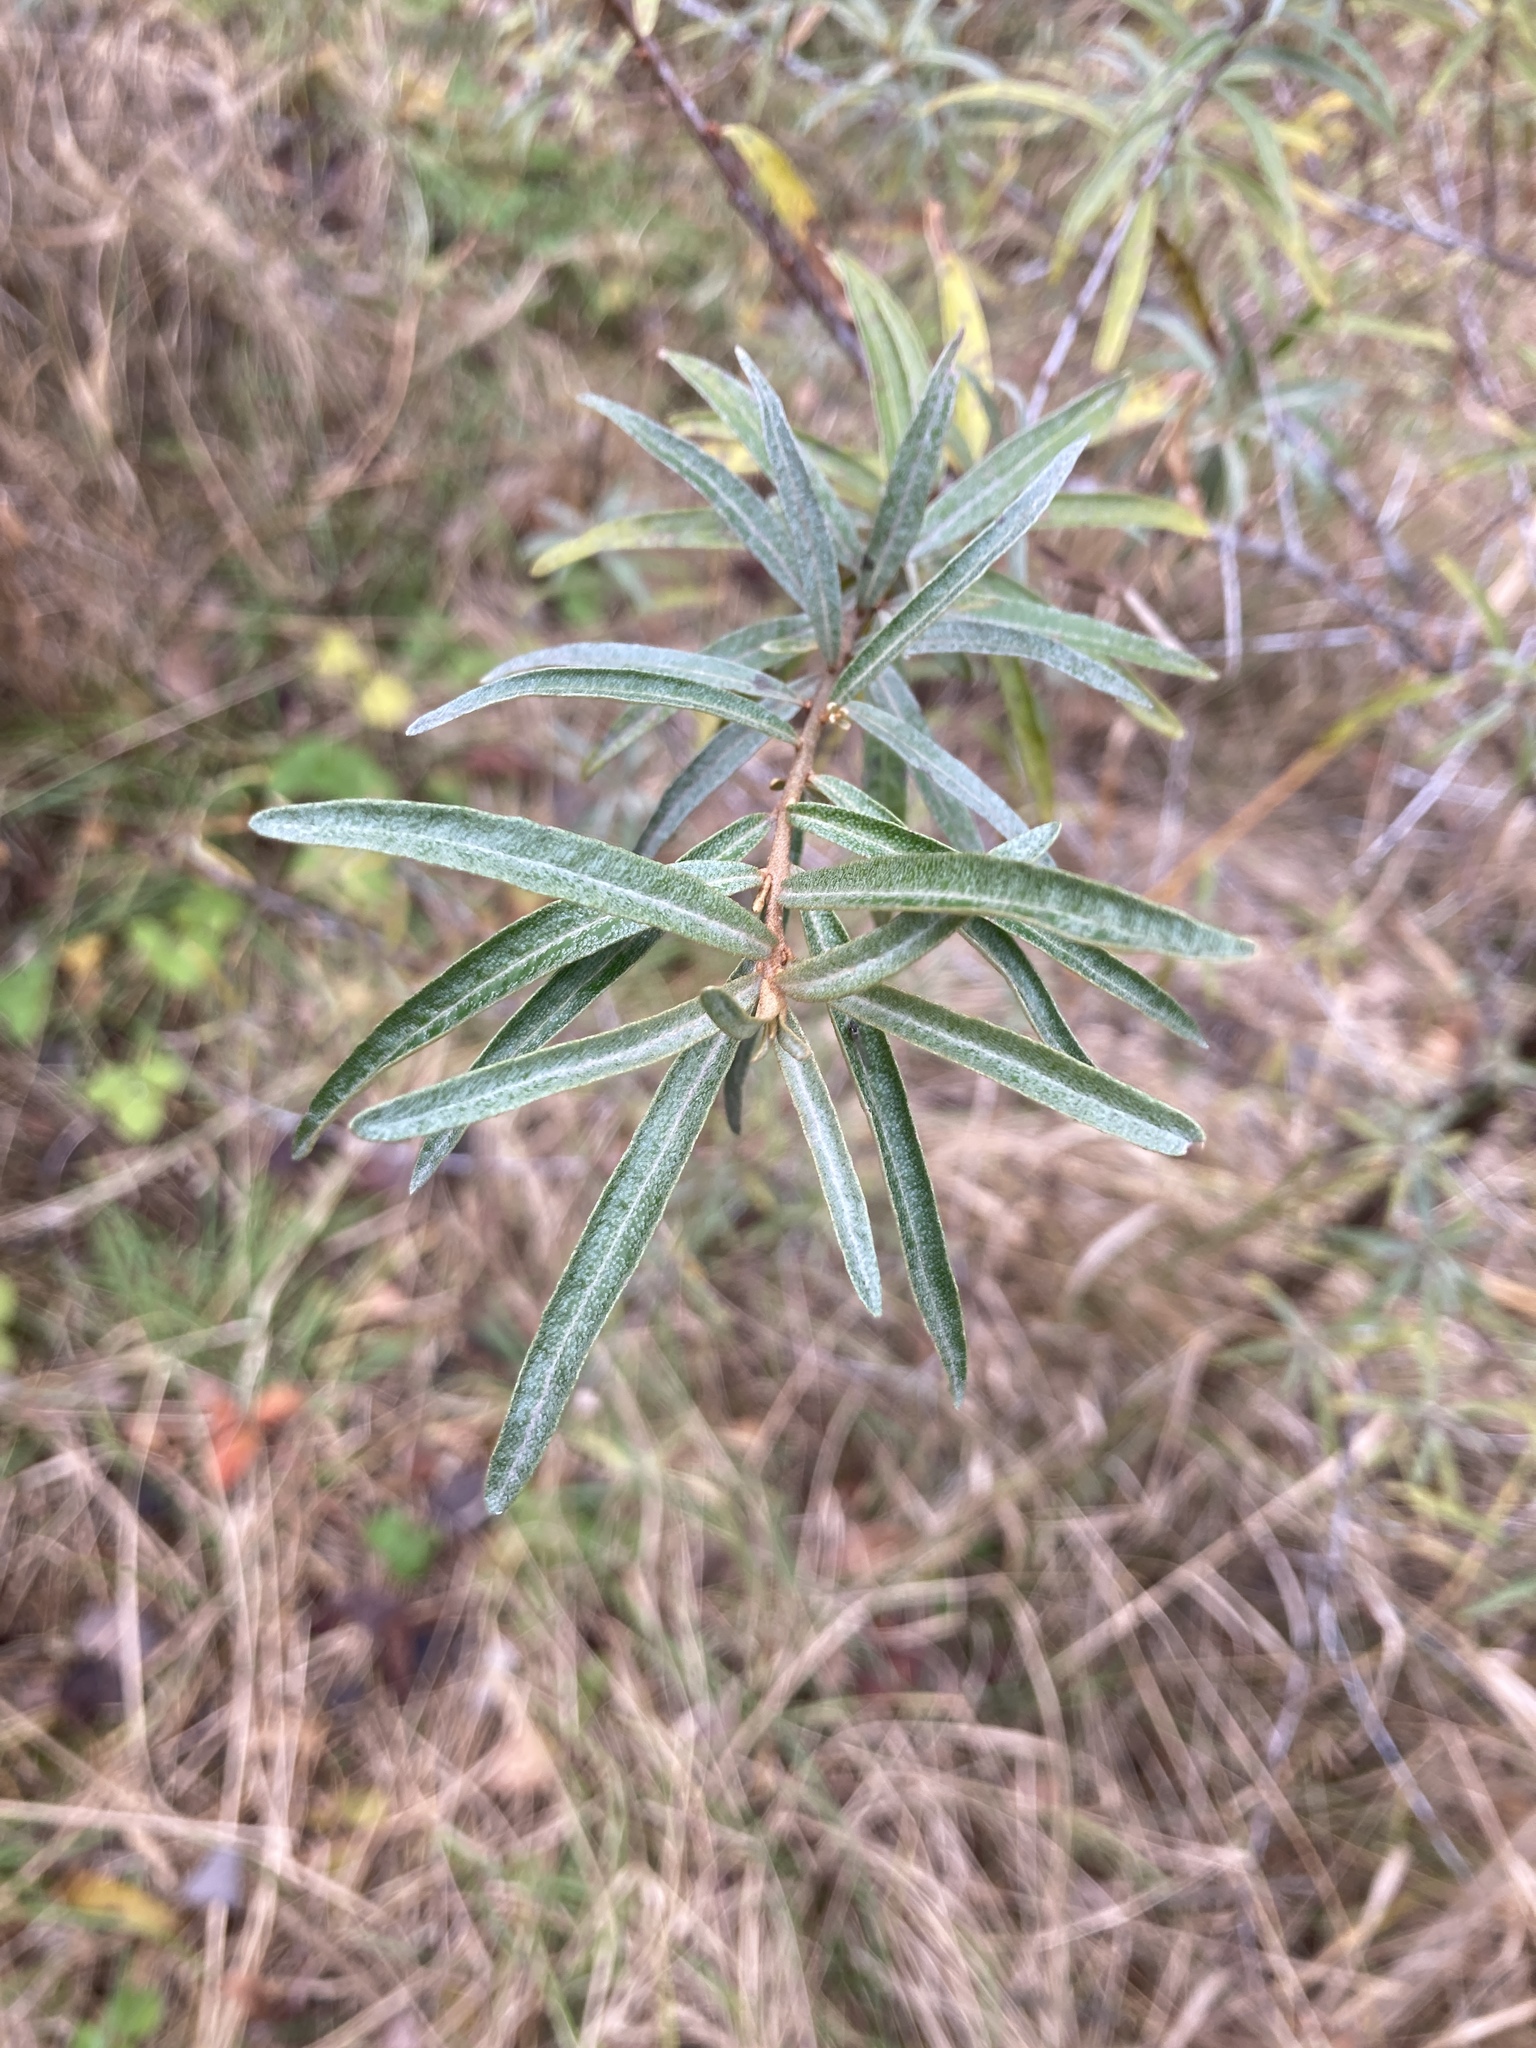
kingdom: Plantae
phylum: Tracheophyta
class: Magnoliopsida
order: Rosales
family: Elaeagnaceae
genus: Hippophae
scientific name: Hippophae rhamnoides
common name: Sea-buckthorn
